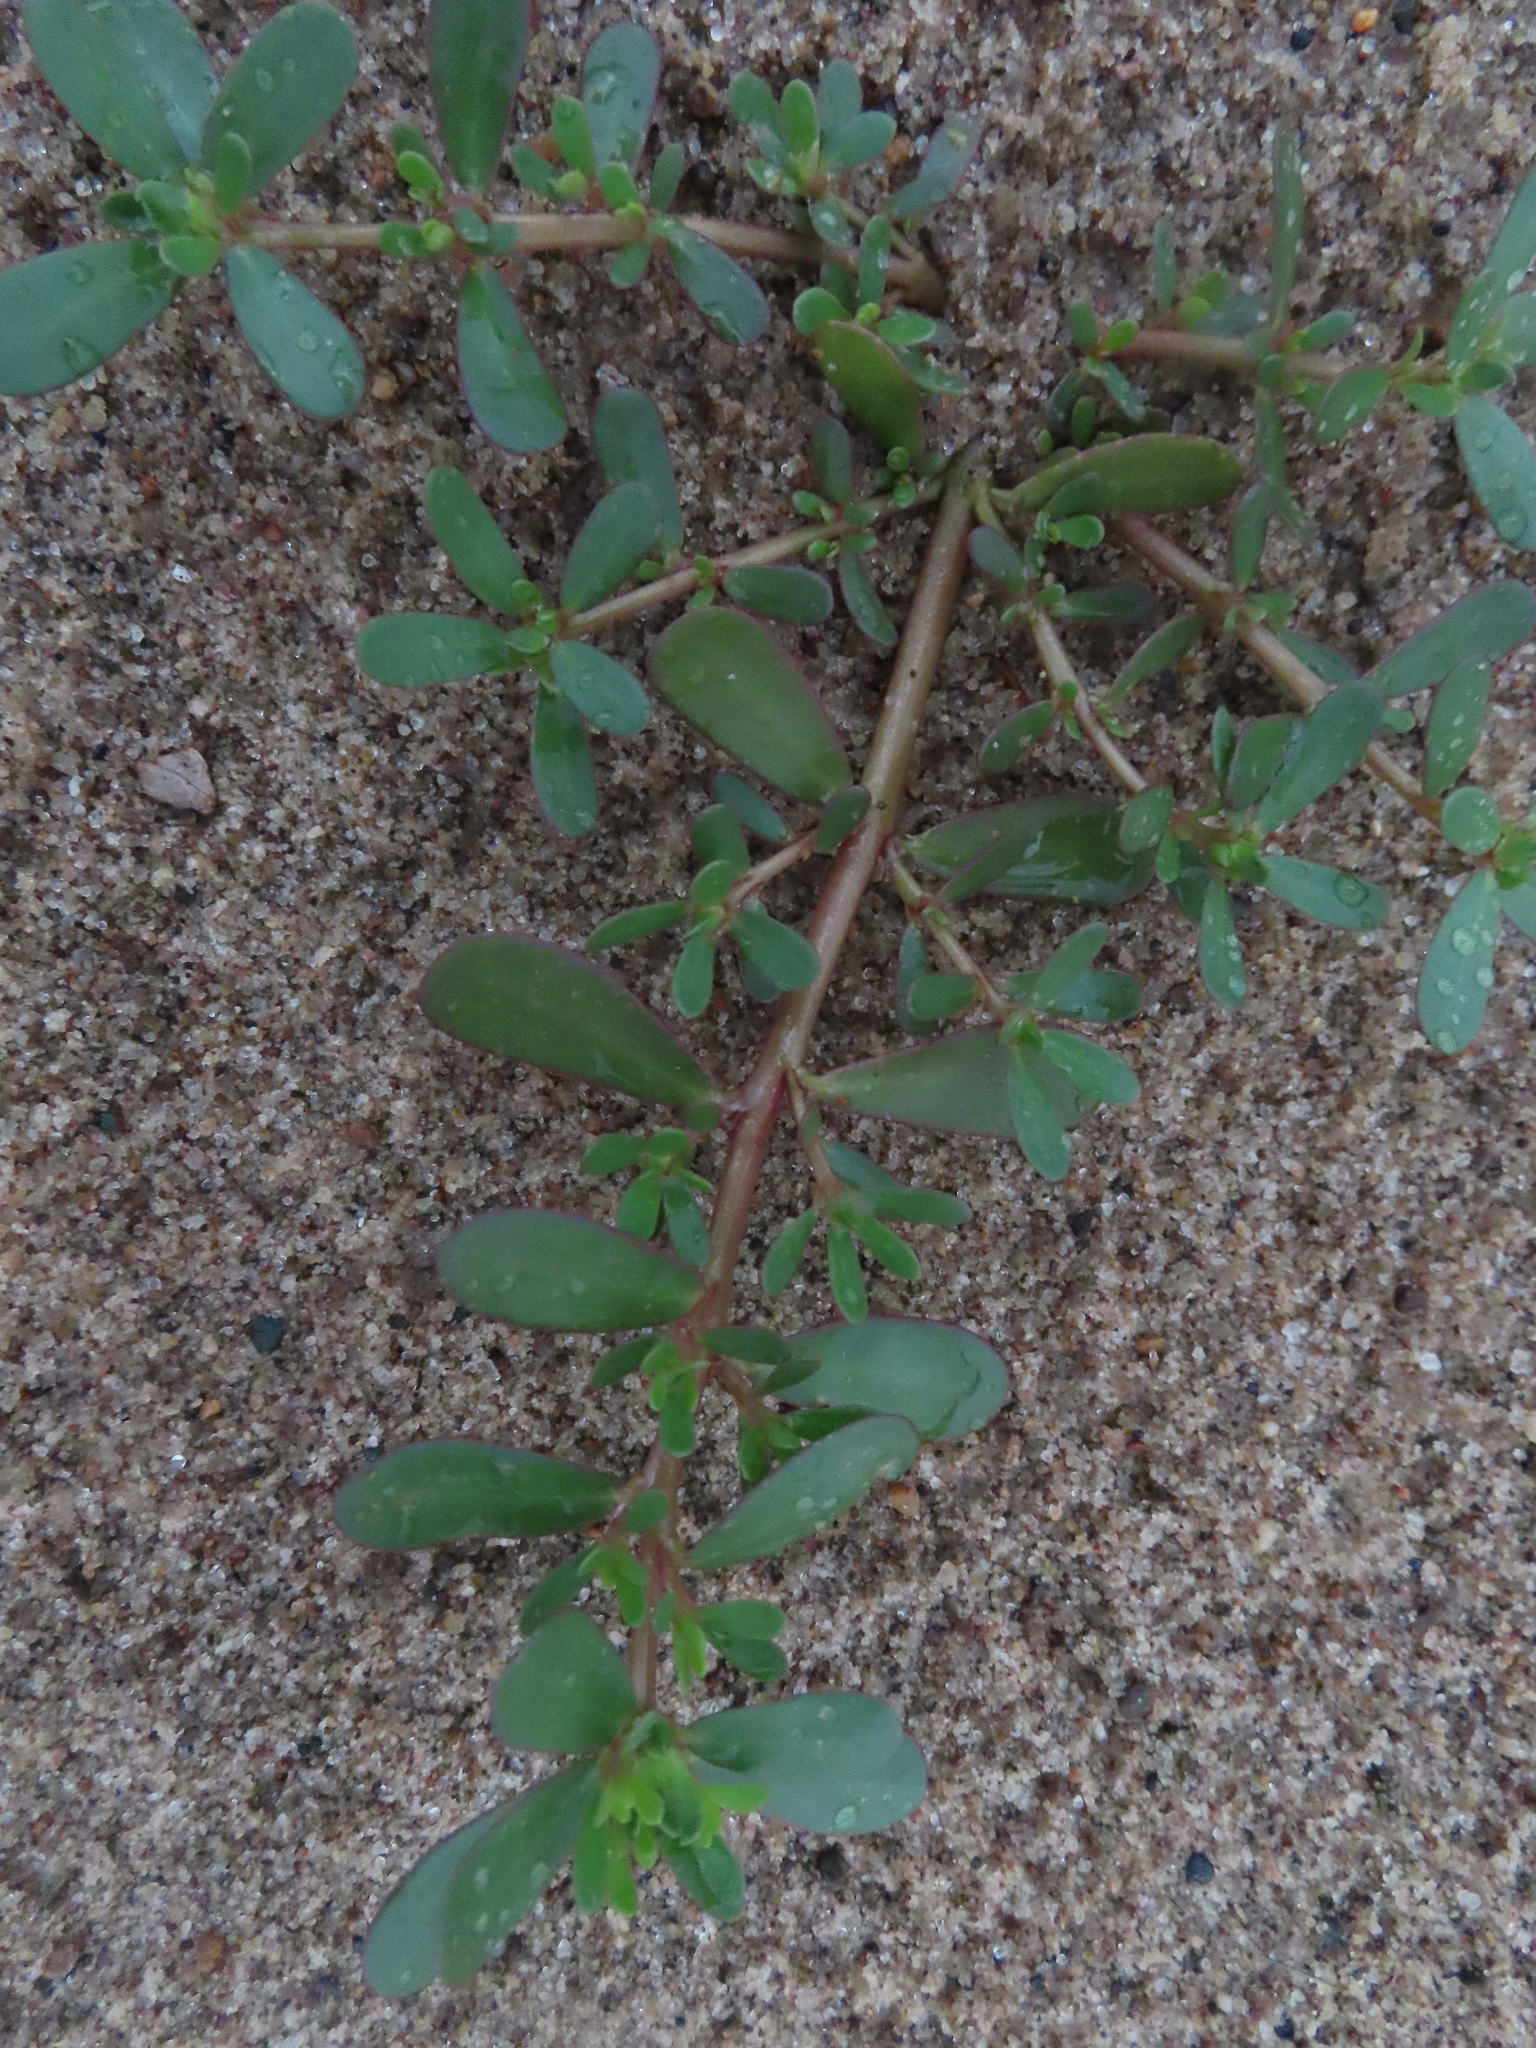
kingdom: Plantae
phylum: Tracheophyta
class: Magnoliopsida
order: Caryophyllales
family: Portulacaceae
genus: Portulaca
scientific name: Portulaca oleracea
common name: Common purslane
